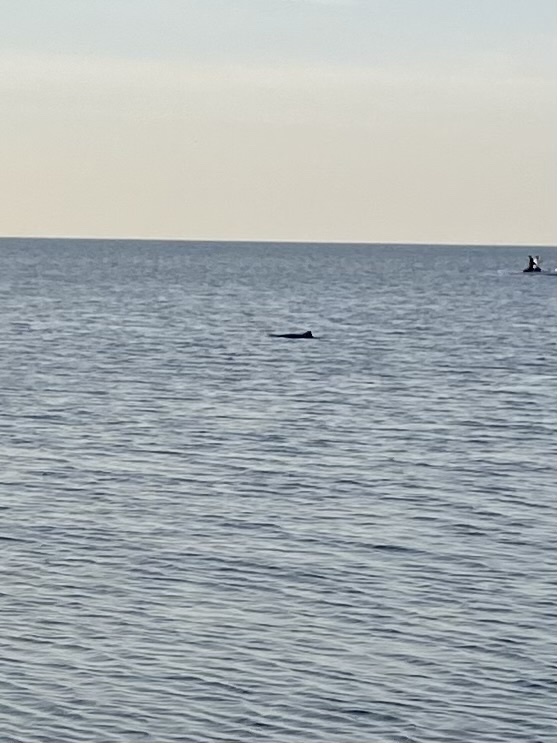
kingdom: Animalia
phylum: Chordata
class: Mammalia
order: Cetacea
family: Phocoenidae
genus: Phocoena
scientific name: Phocoena phocoena
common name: Harbor porpoise
